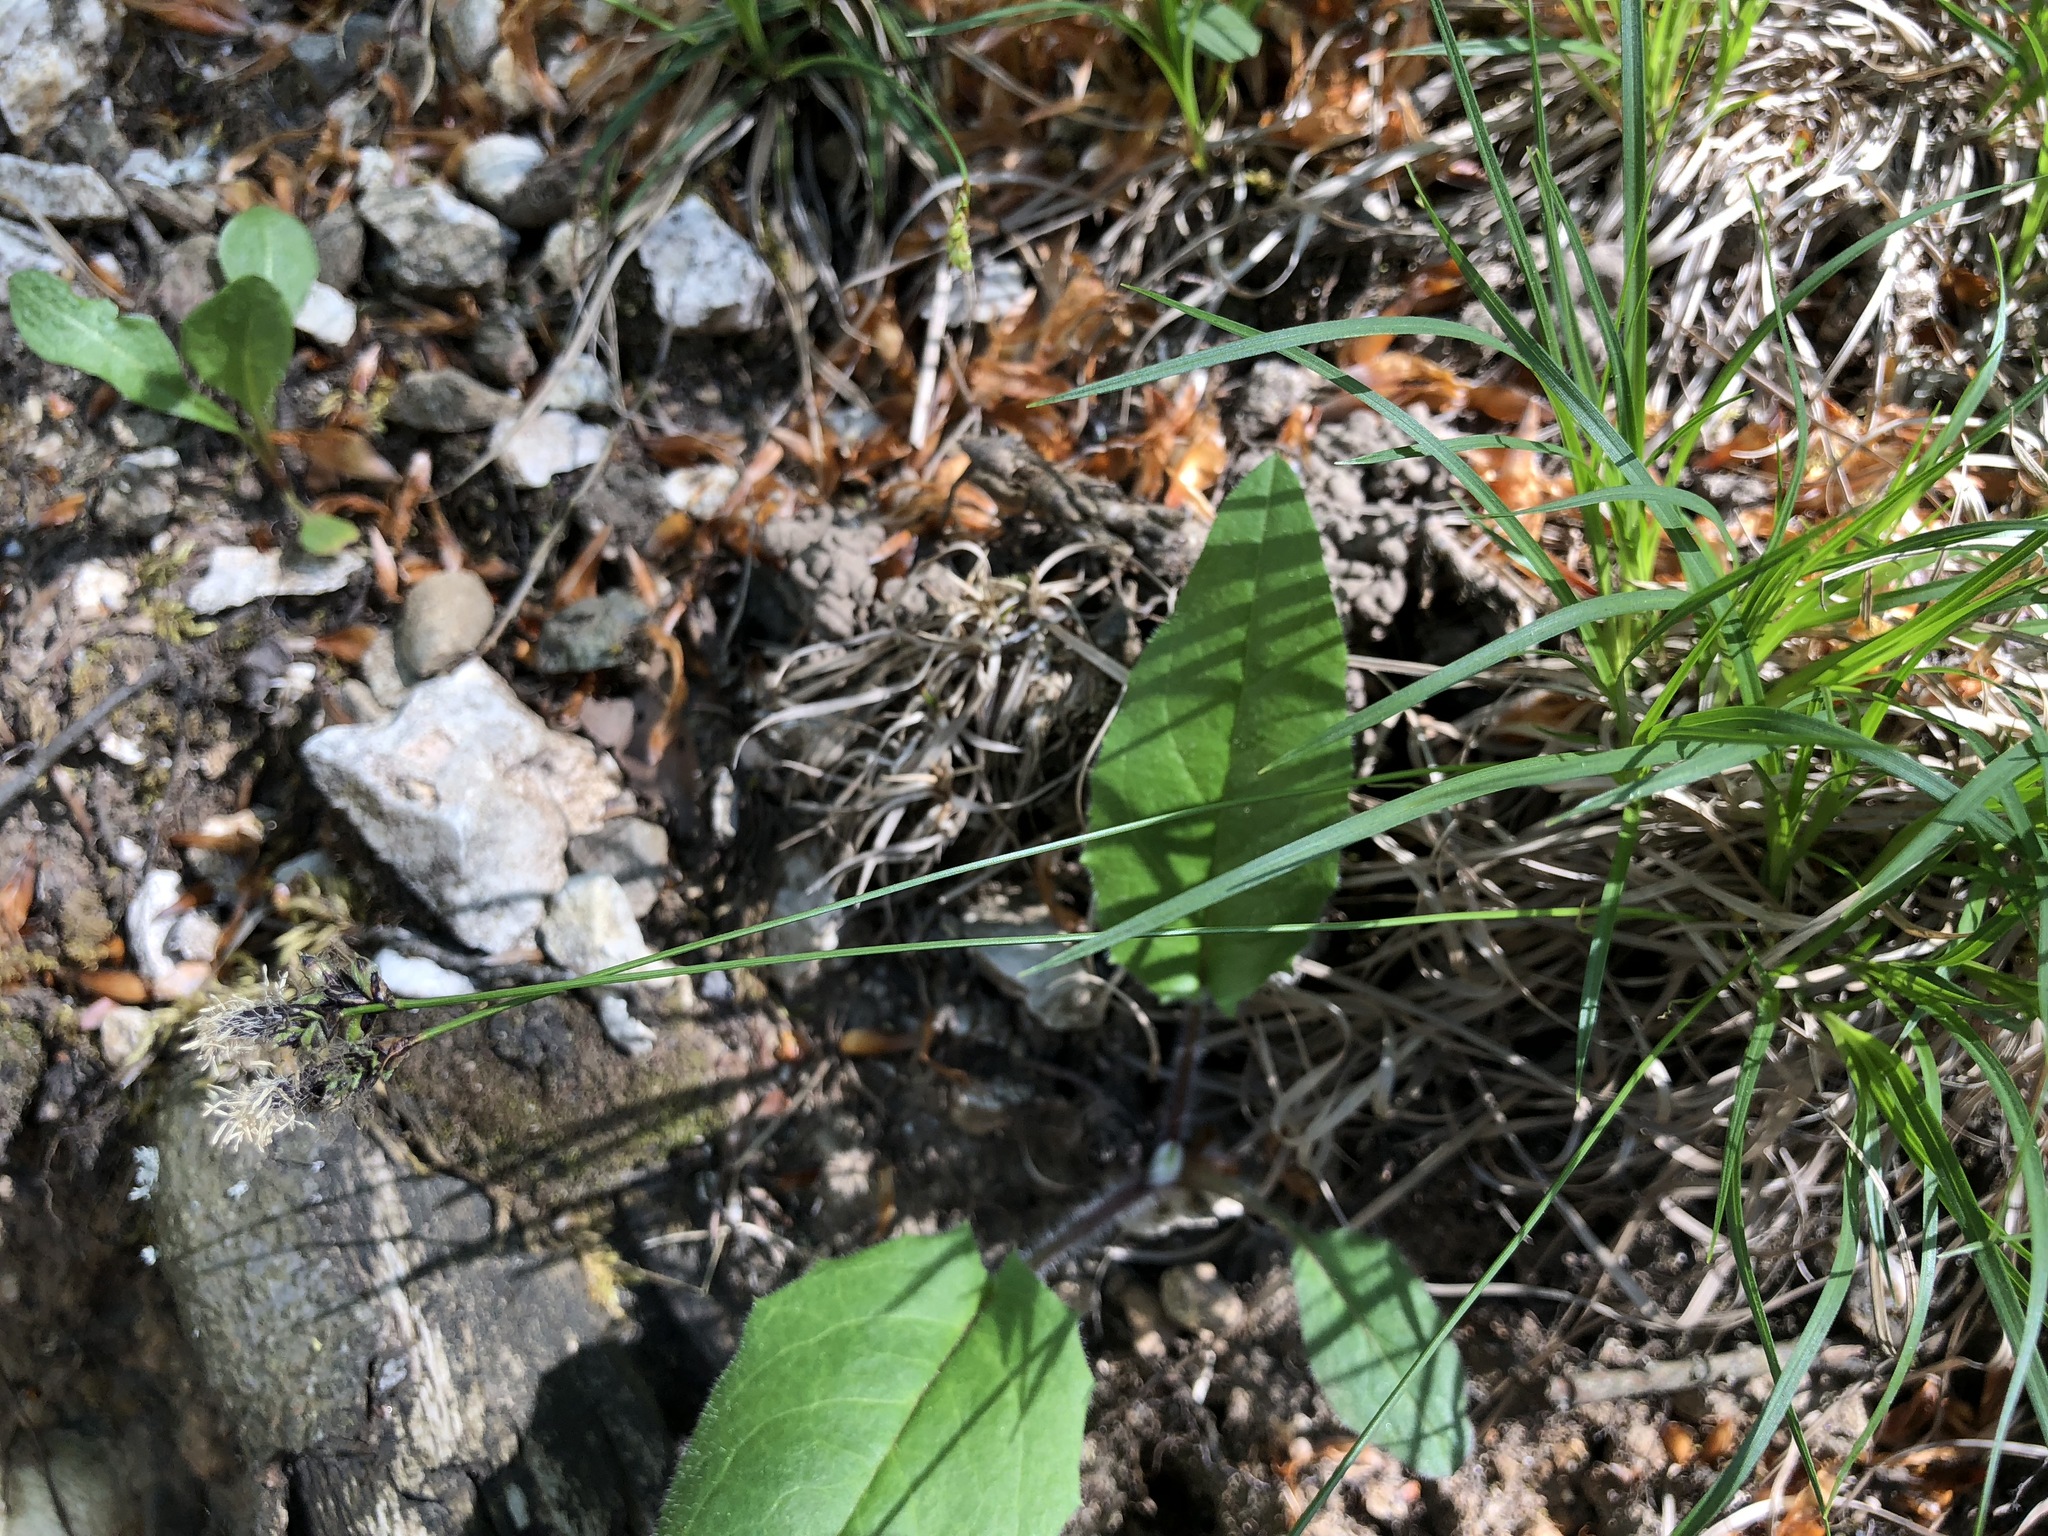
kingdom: Plantae
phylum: Tracheophyta
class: Liliopsida
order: Poales
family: Cyperaceae
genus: Carex
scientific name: Carex montana
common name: Soft-leaved sedge
